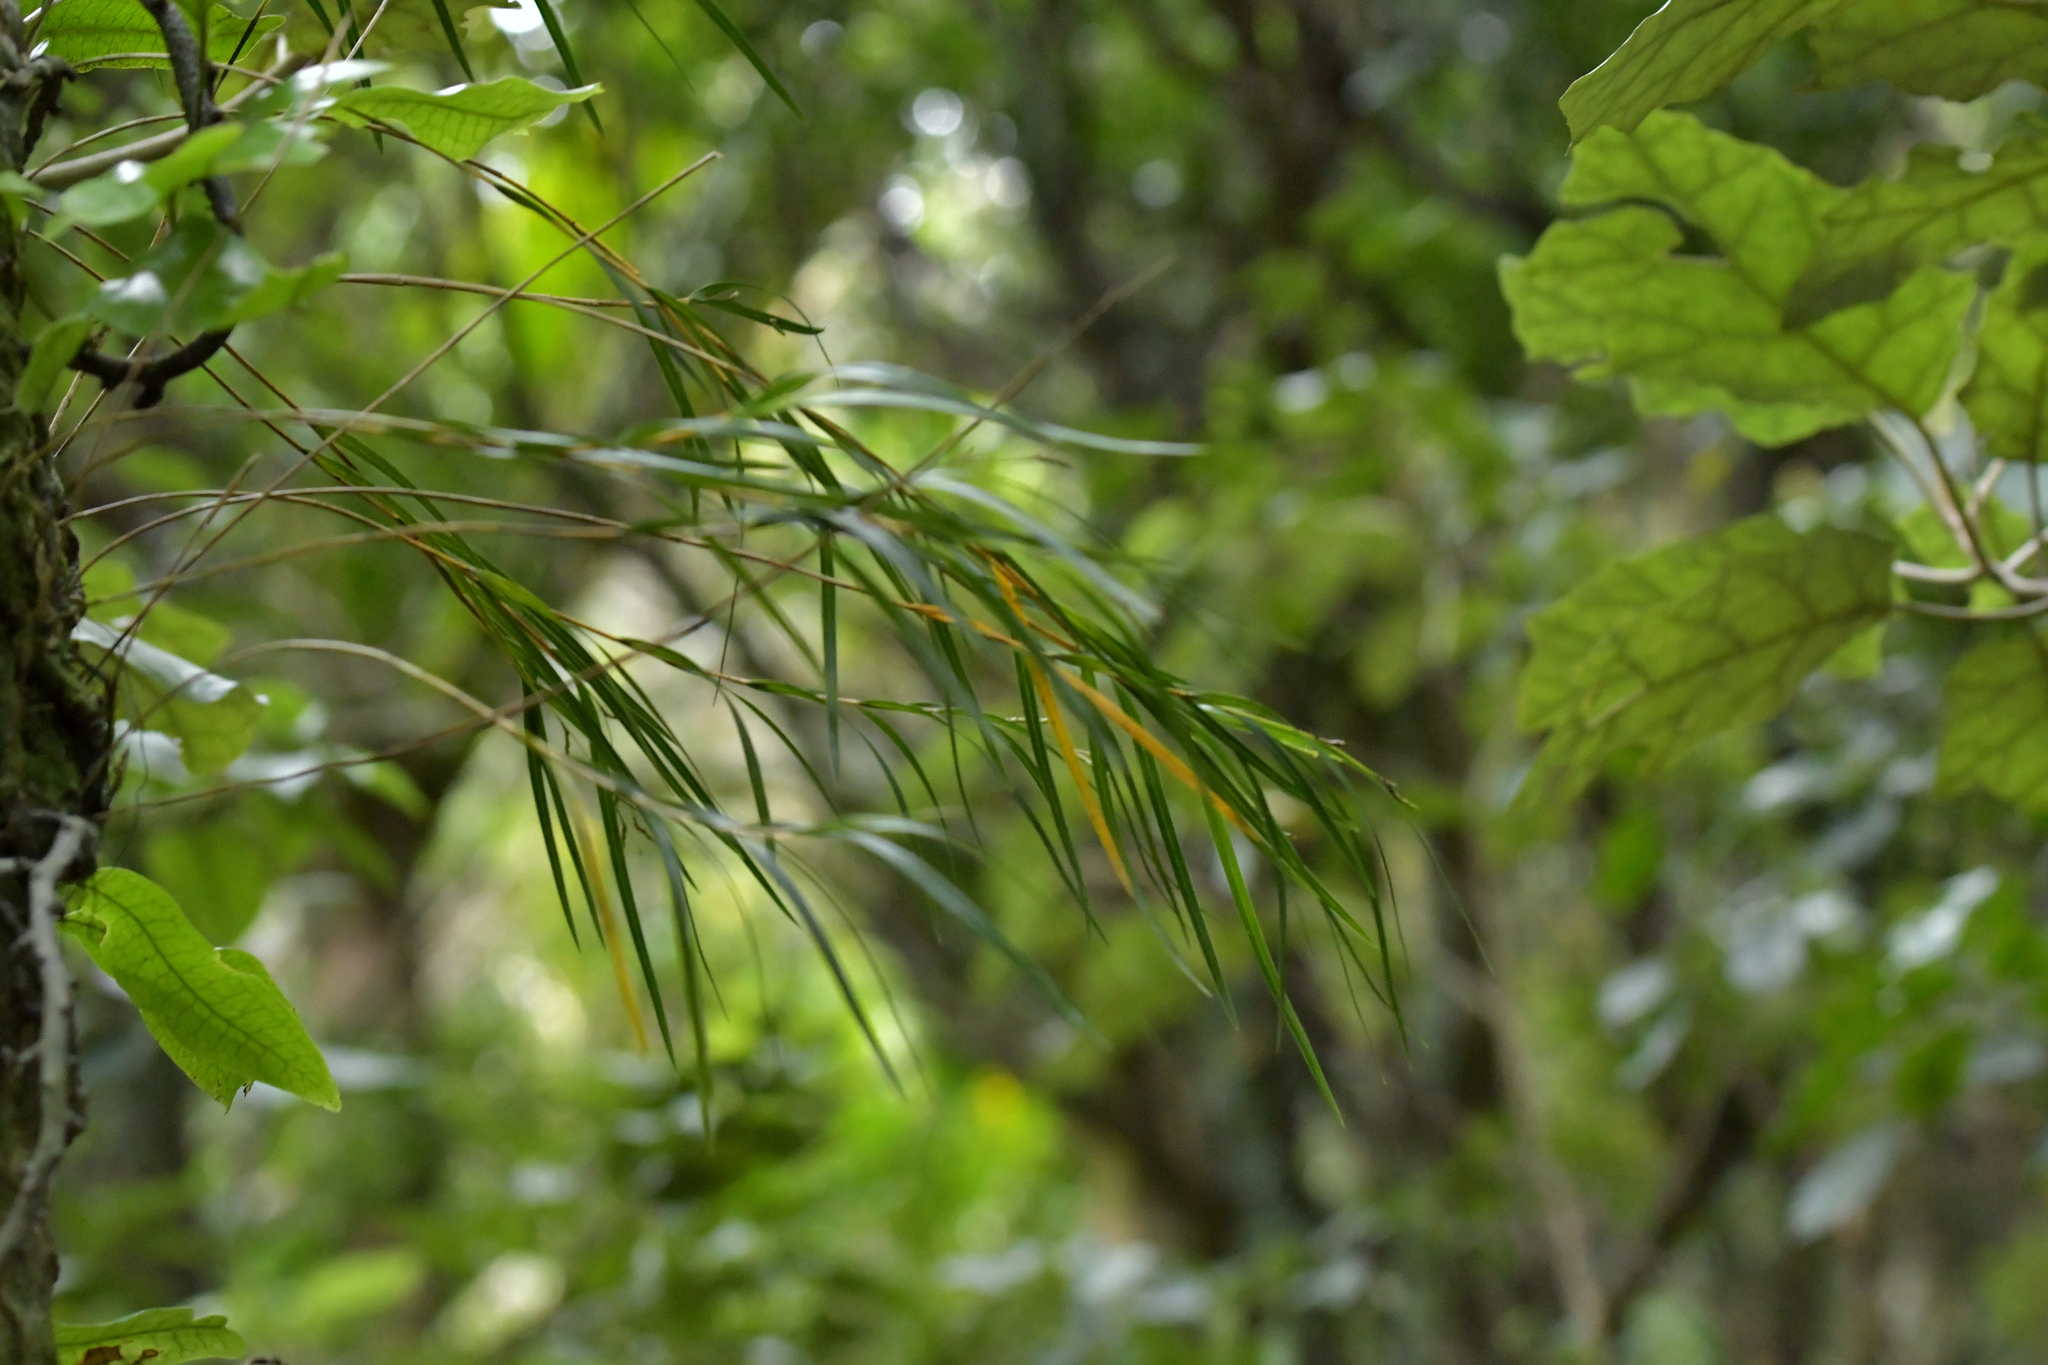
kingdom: Plantae
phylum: Tracheophyta
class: Liliopsida
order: Asparagales
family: Orchidaceae
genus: Earina
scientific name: Earina mucronata
